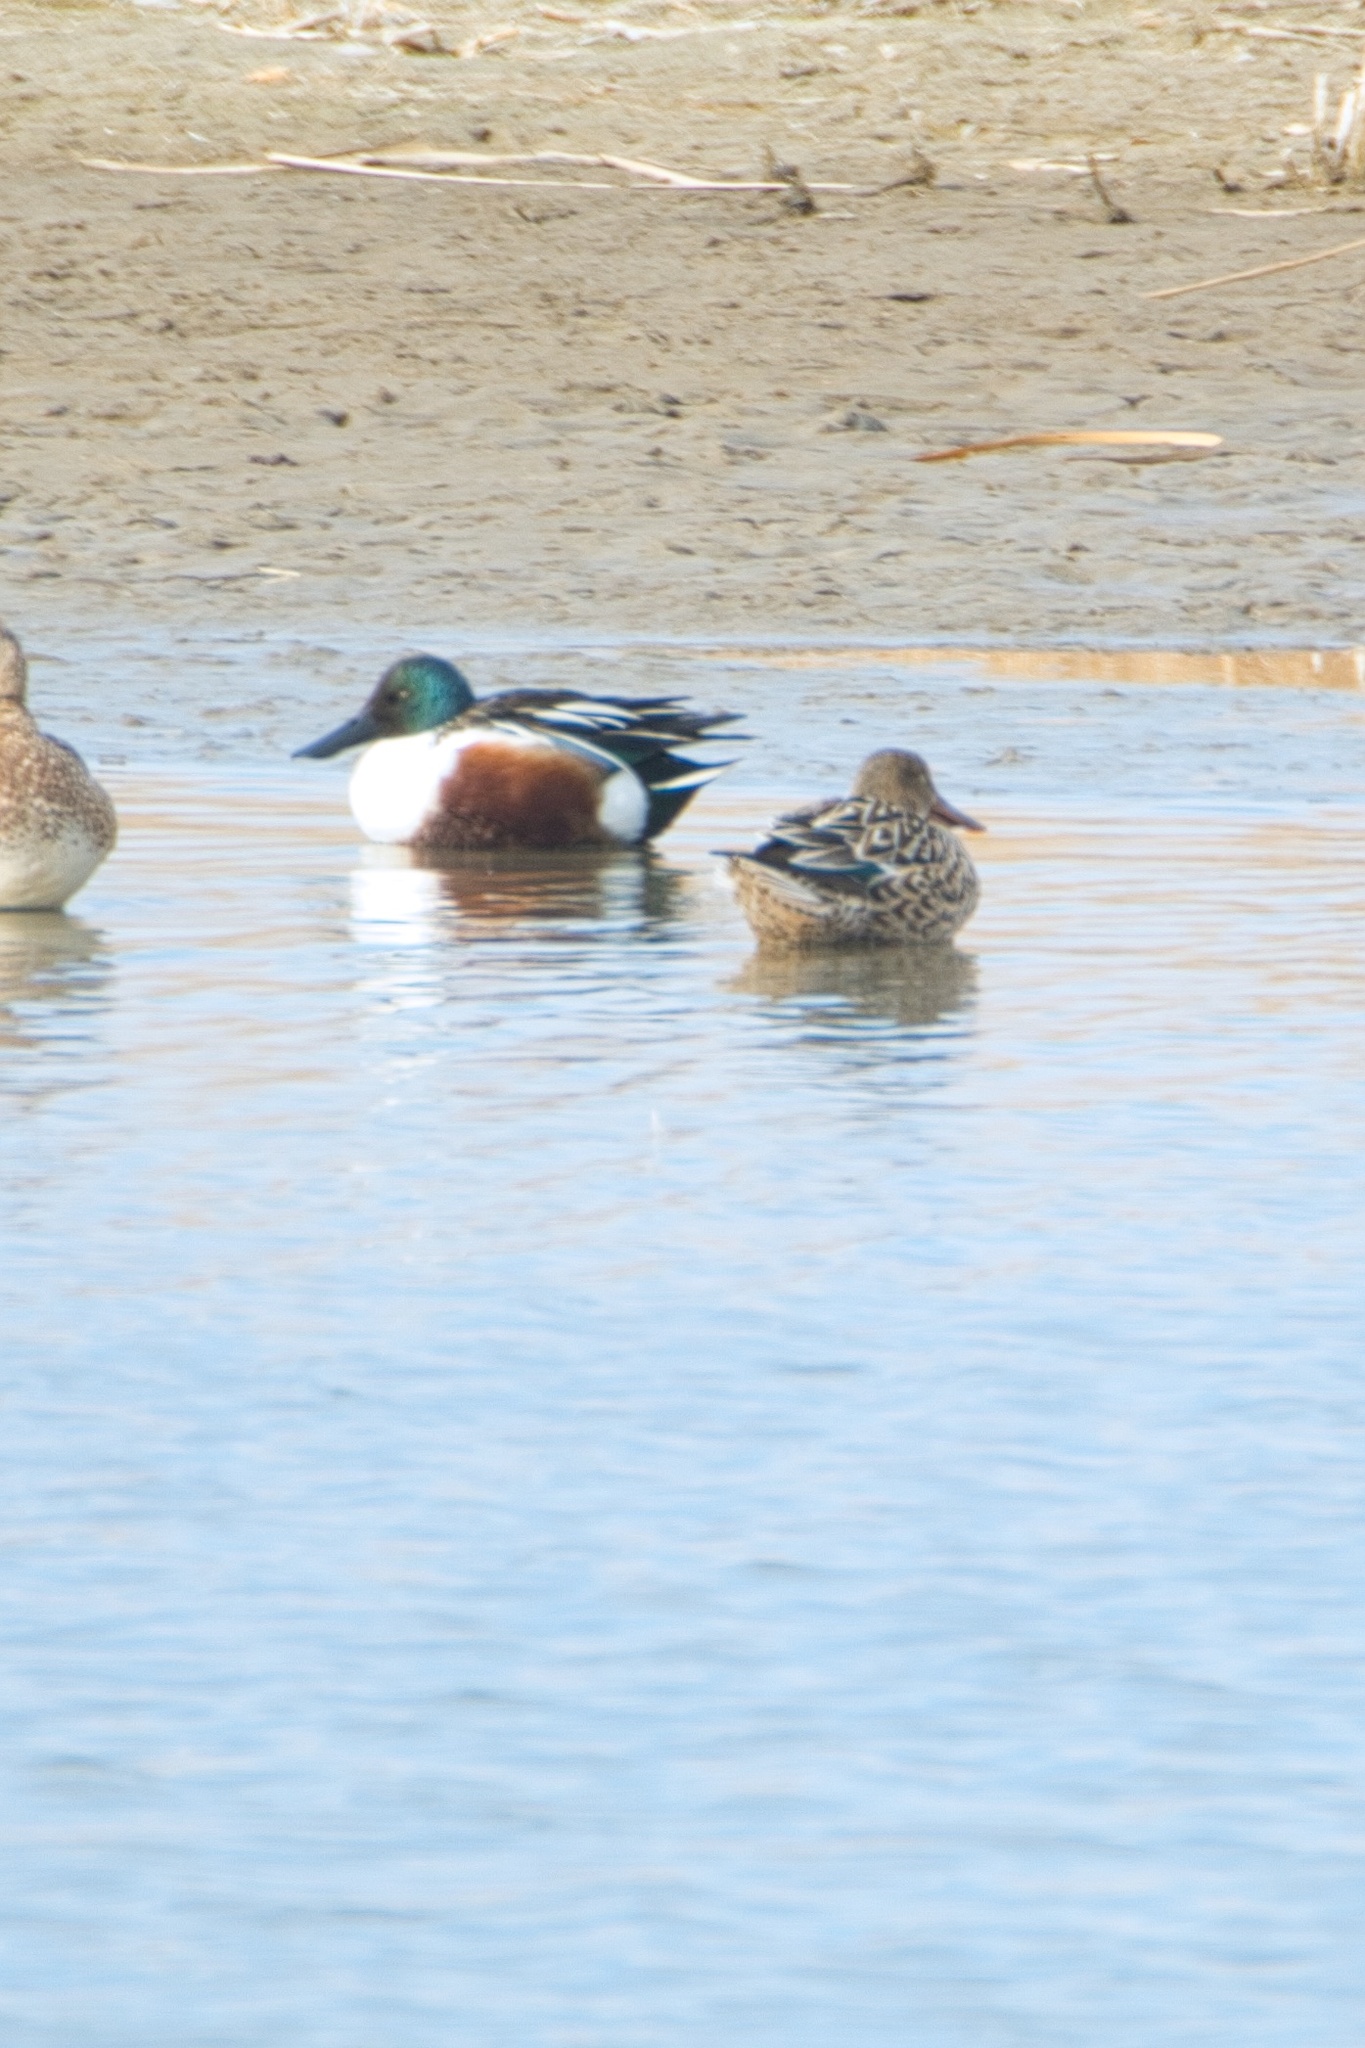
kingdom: Animalia
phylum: Chordata
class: Aves
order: Anseriformes
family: Anatidae
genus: Spatula
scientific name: Spatula clypeata
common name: Northern shoveler
